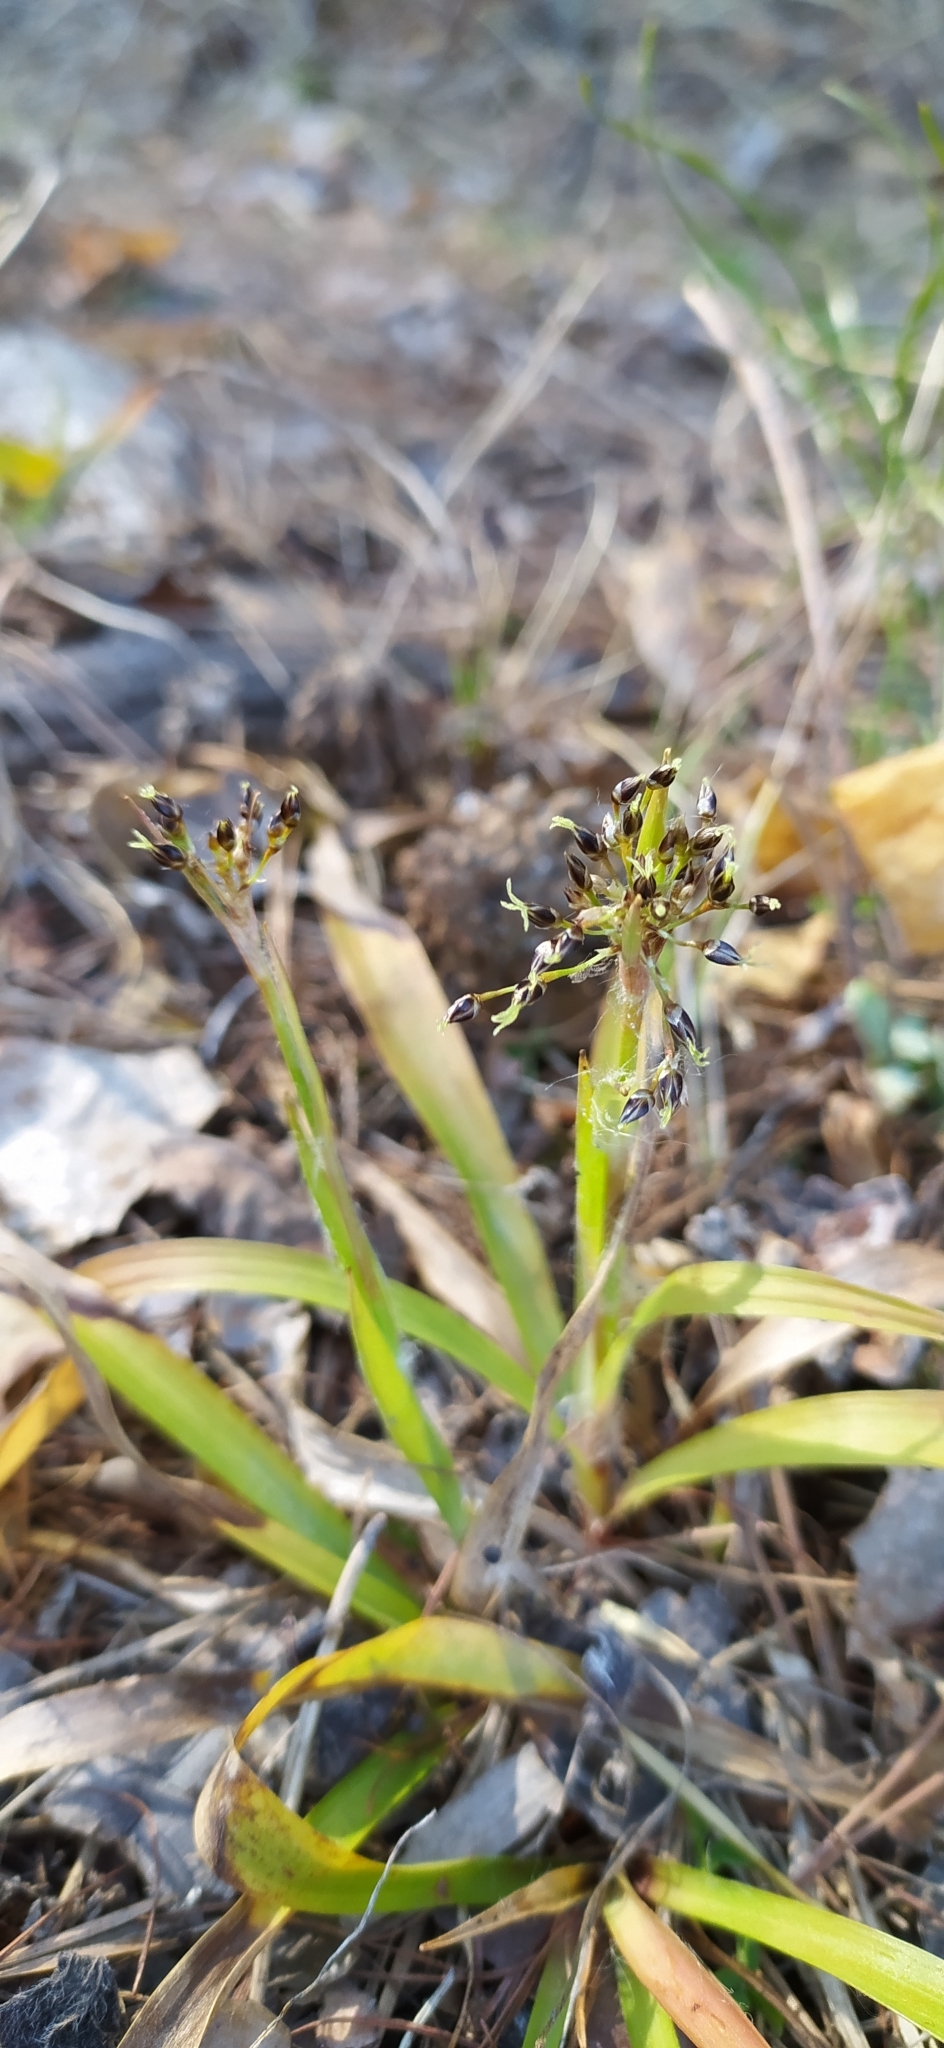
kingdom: Plantae
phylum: Tracheophyta
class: Liliopsida
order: Poales
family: Juncaceae
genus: Luzula
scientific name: Luzula pilosa
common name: Hairy wood-rush
